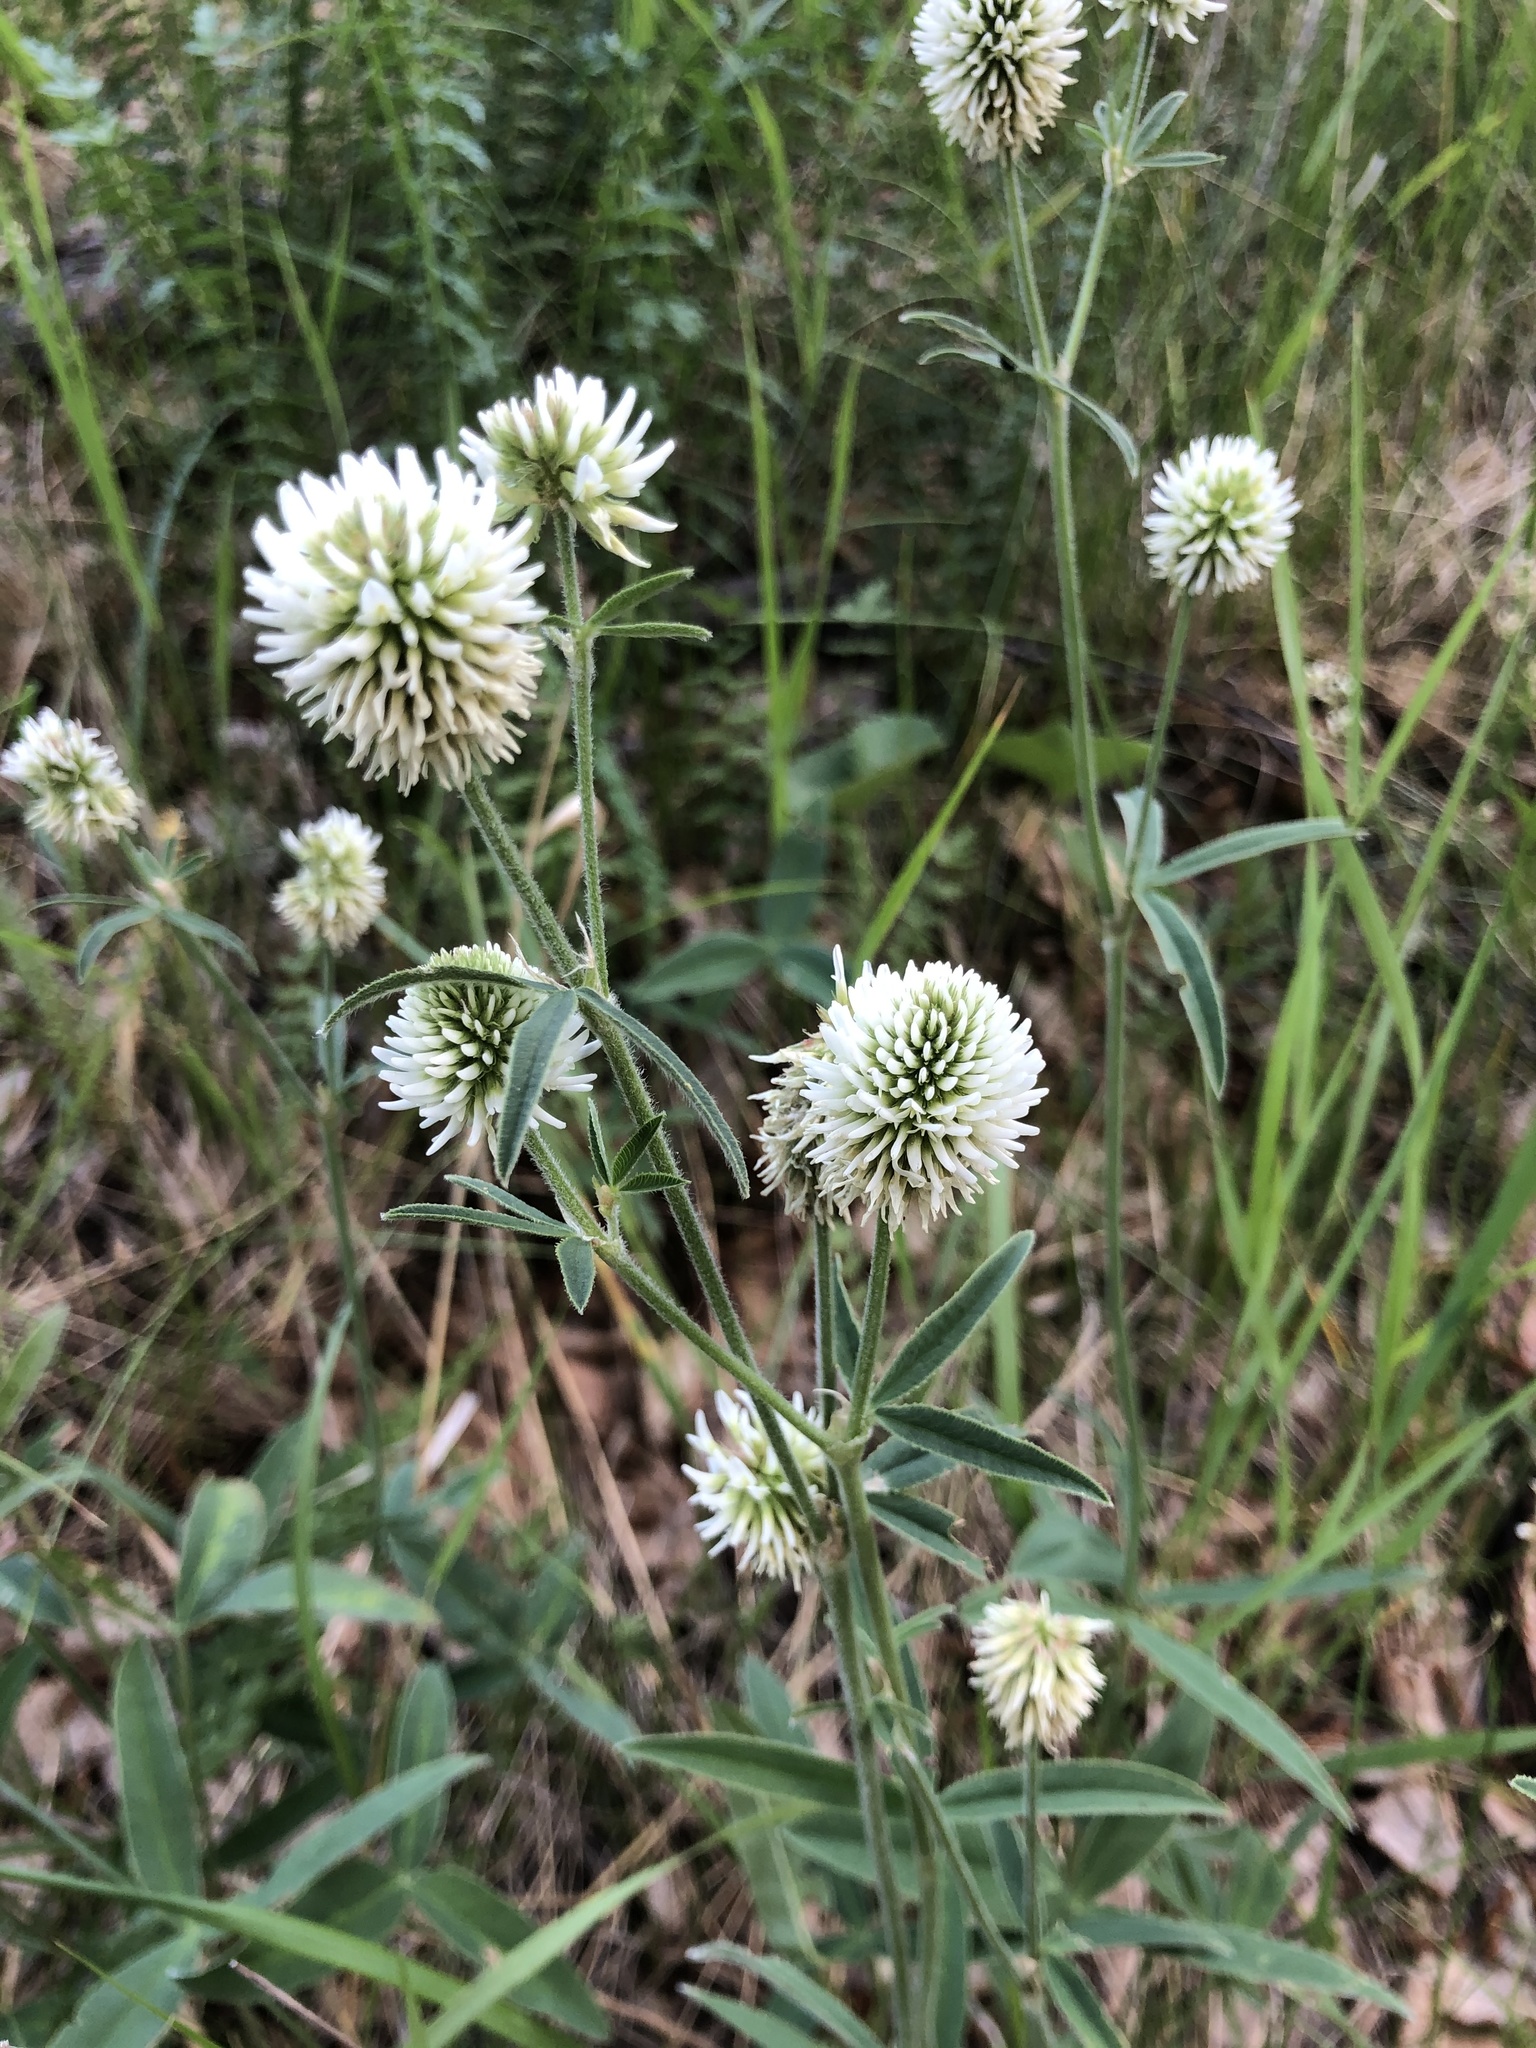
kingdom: Plantae
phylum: Tracheophyta
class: Magnoliopsida
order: Fabales
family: Fabaceae
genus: Trifolium
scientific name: Trifolium montanum
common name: Mountain clover
